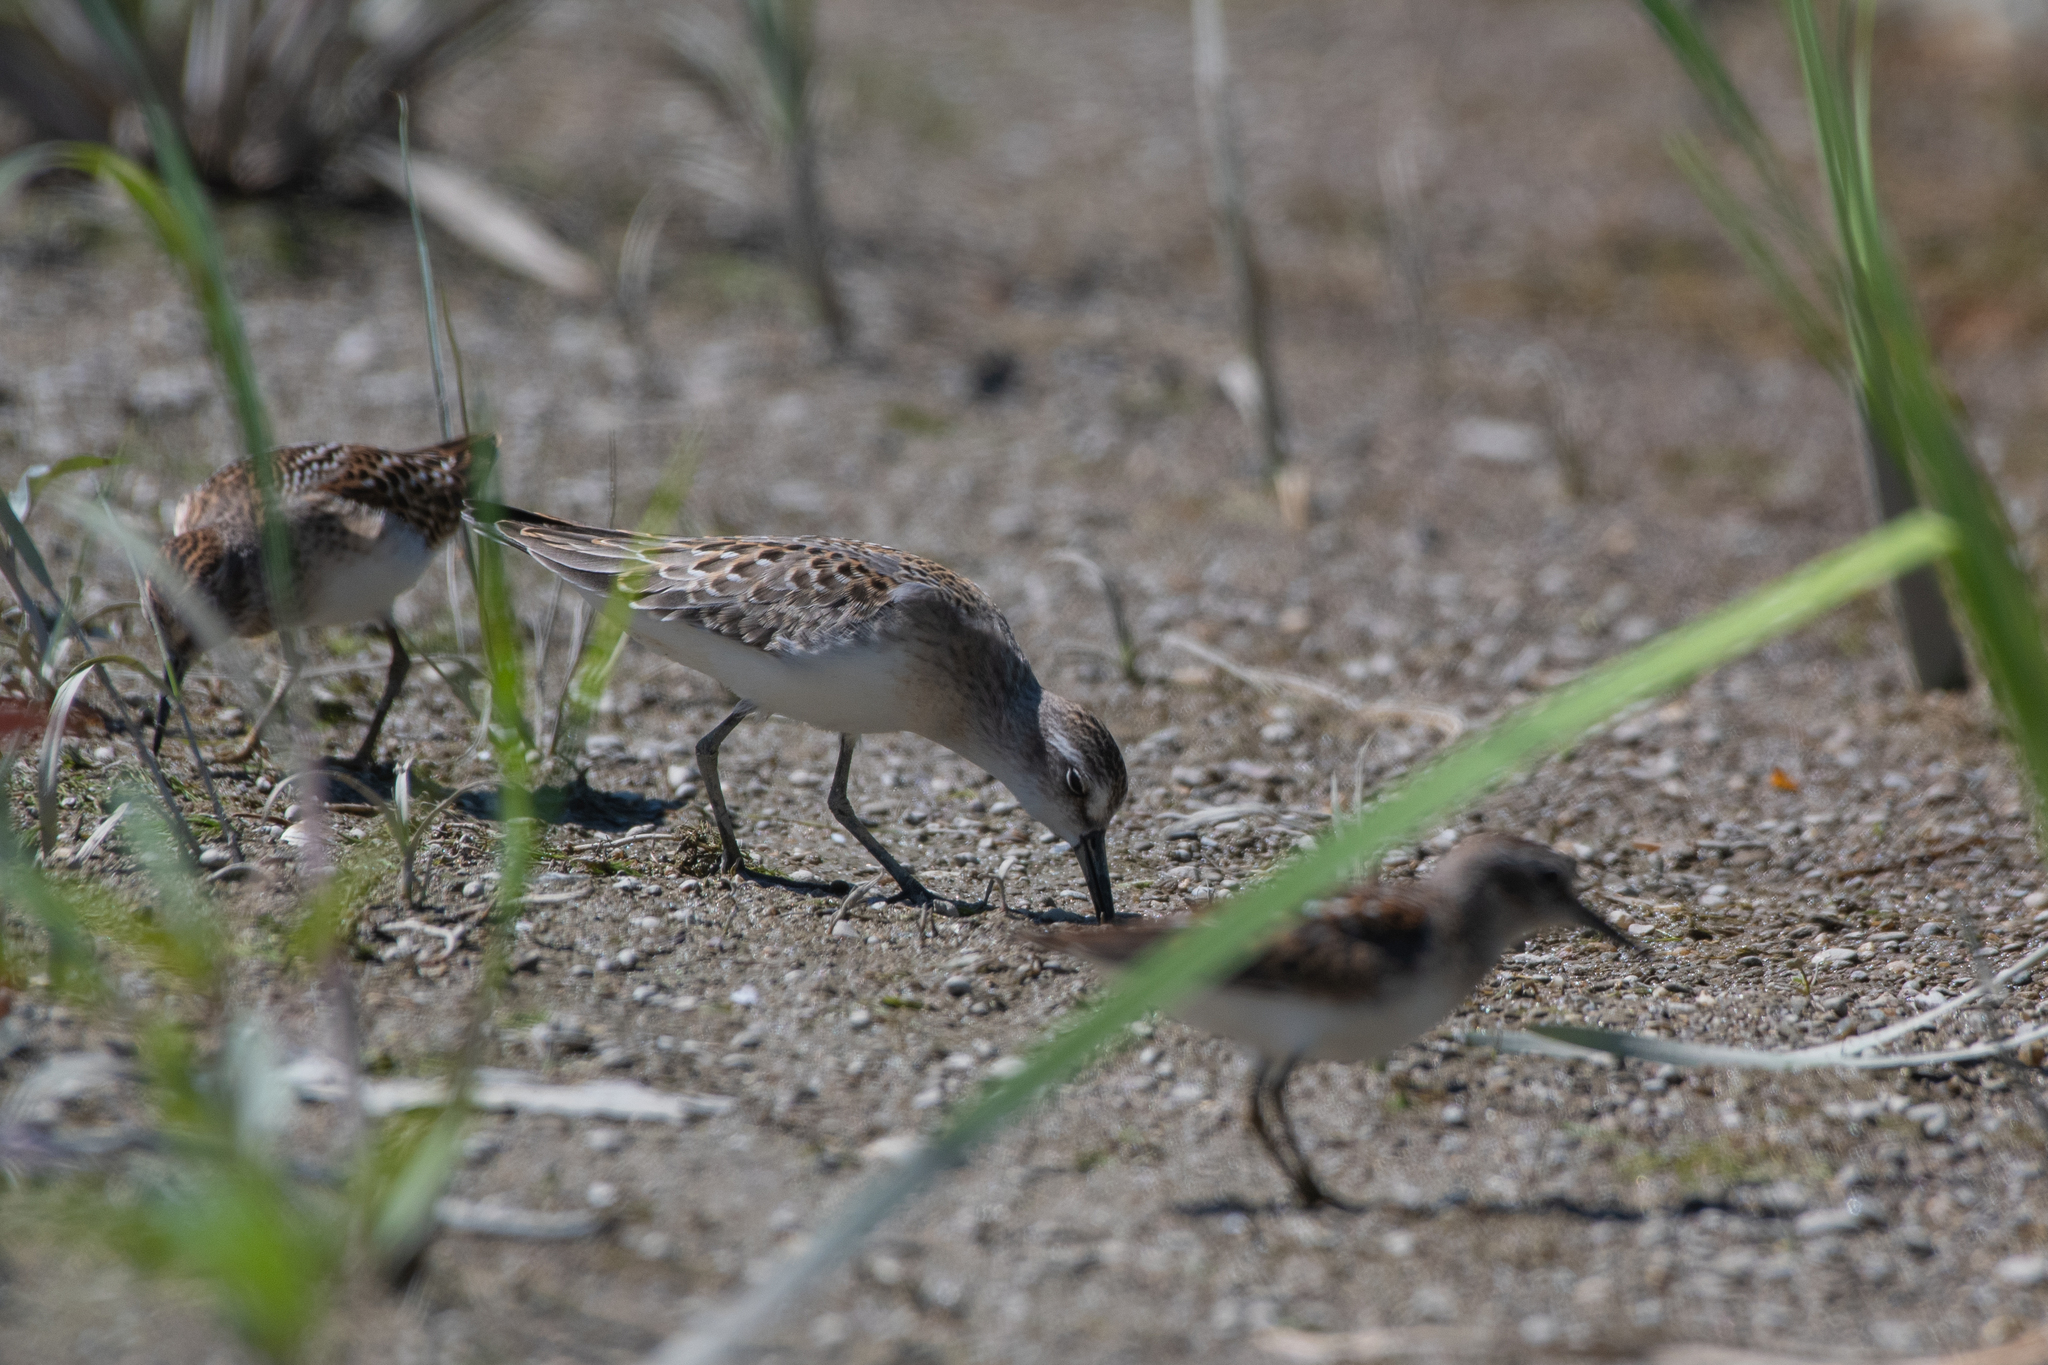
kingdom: Animalia
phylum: Chordata
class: Aves
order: Charadriiformes
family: Scolopacidae
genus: Calidris
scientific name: Calidris pusilla
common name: Semipalmated sandpiper
